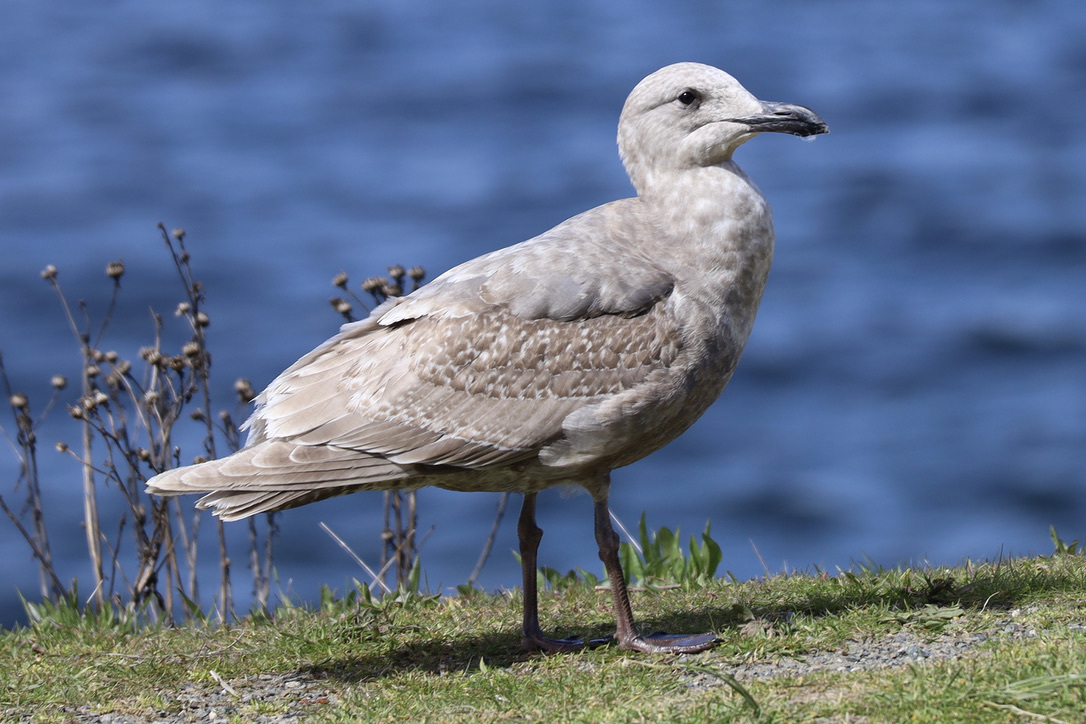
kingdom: Animalia
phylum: Chordata
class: Aves
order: Charadriiformes
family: Laridae
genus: Larus
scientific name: Larus
